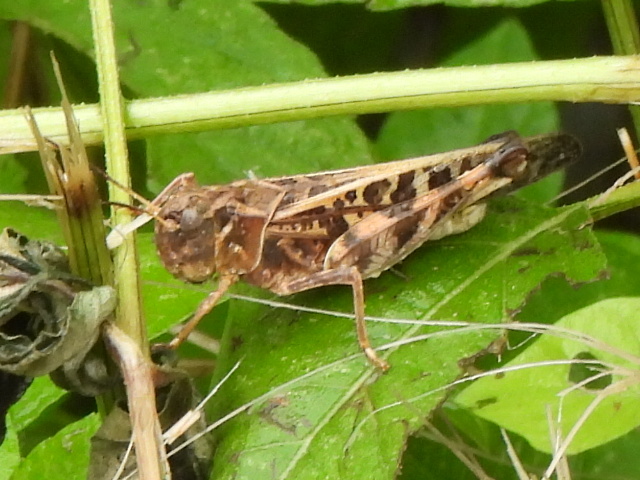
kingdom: Animalia
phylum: Arthropoda
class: Insecta
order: Orthoptera
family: Acrididae
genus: Hippiscus
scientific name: Hippiscus ocelote
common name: Wrinkled grasshopper
